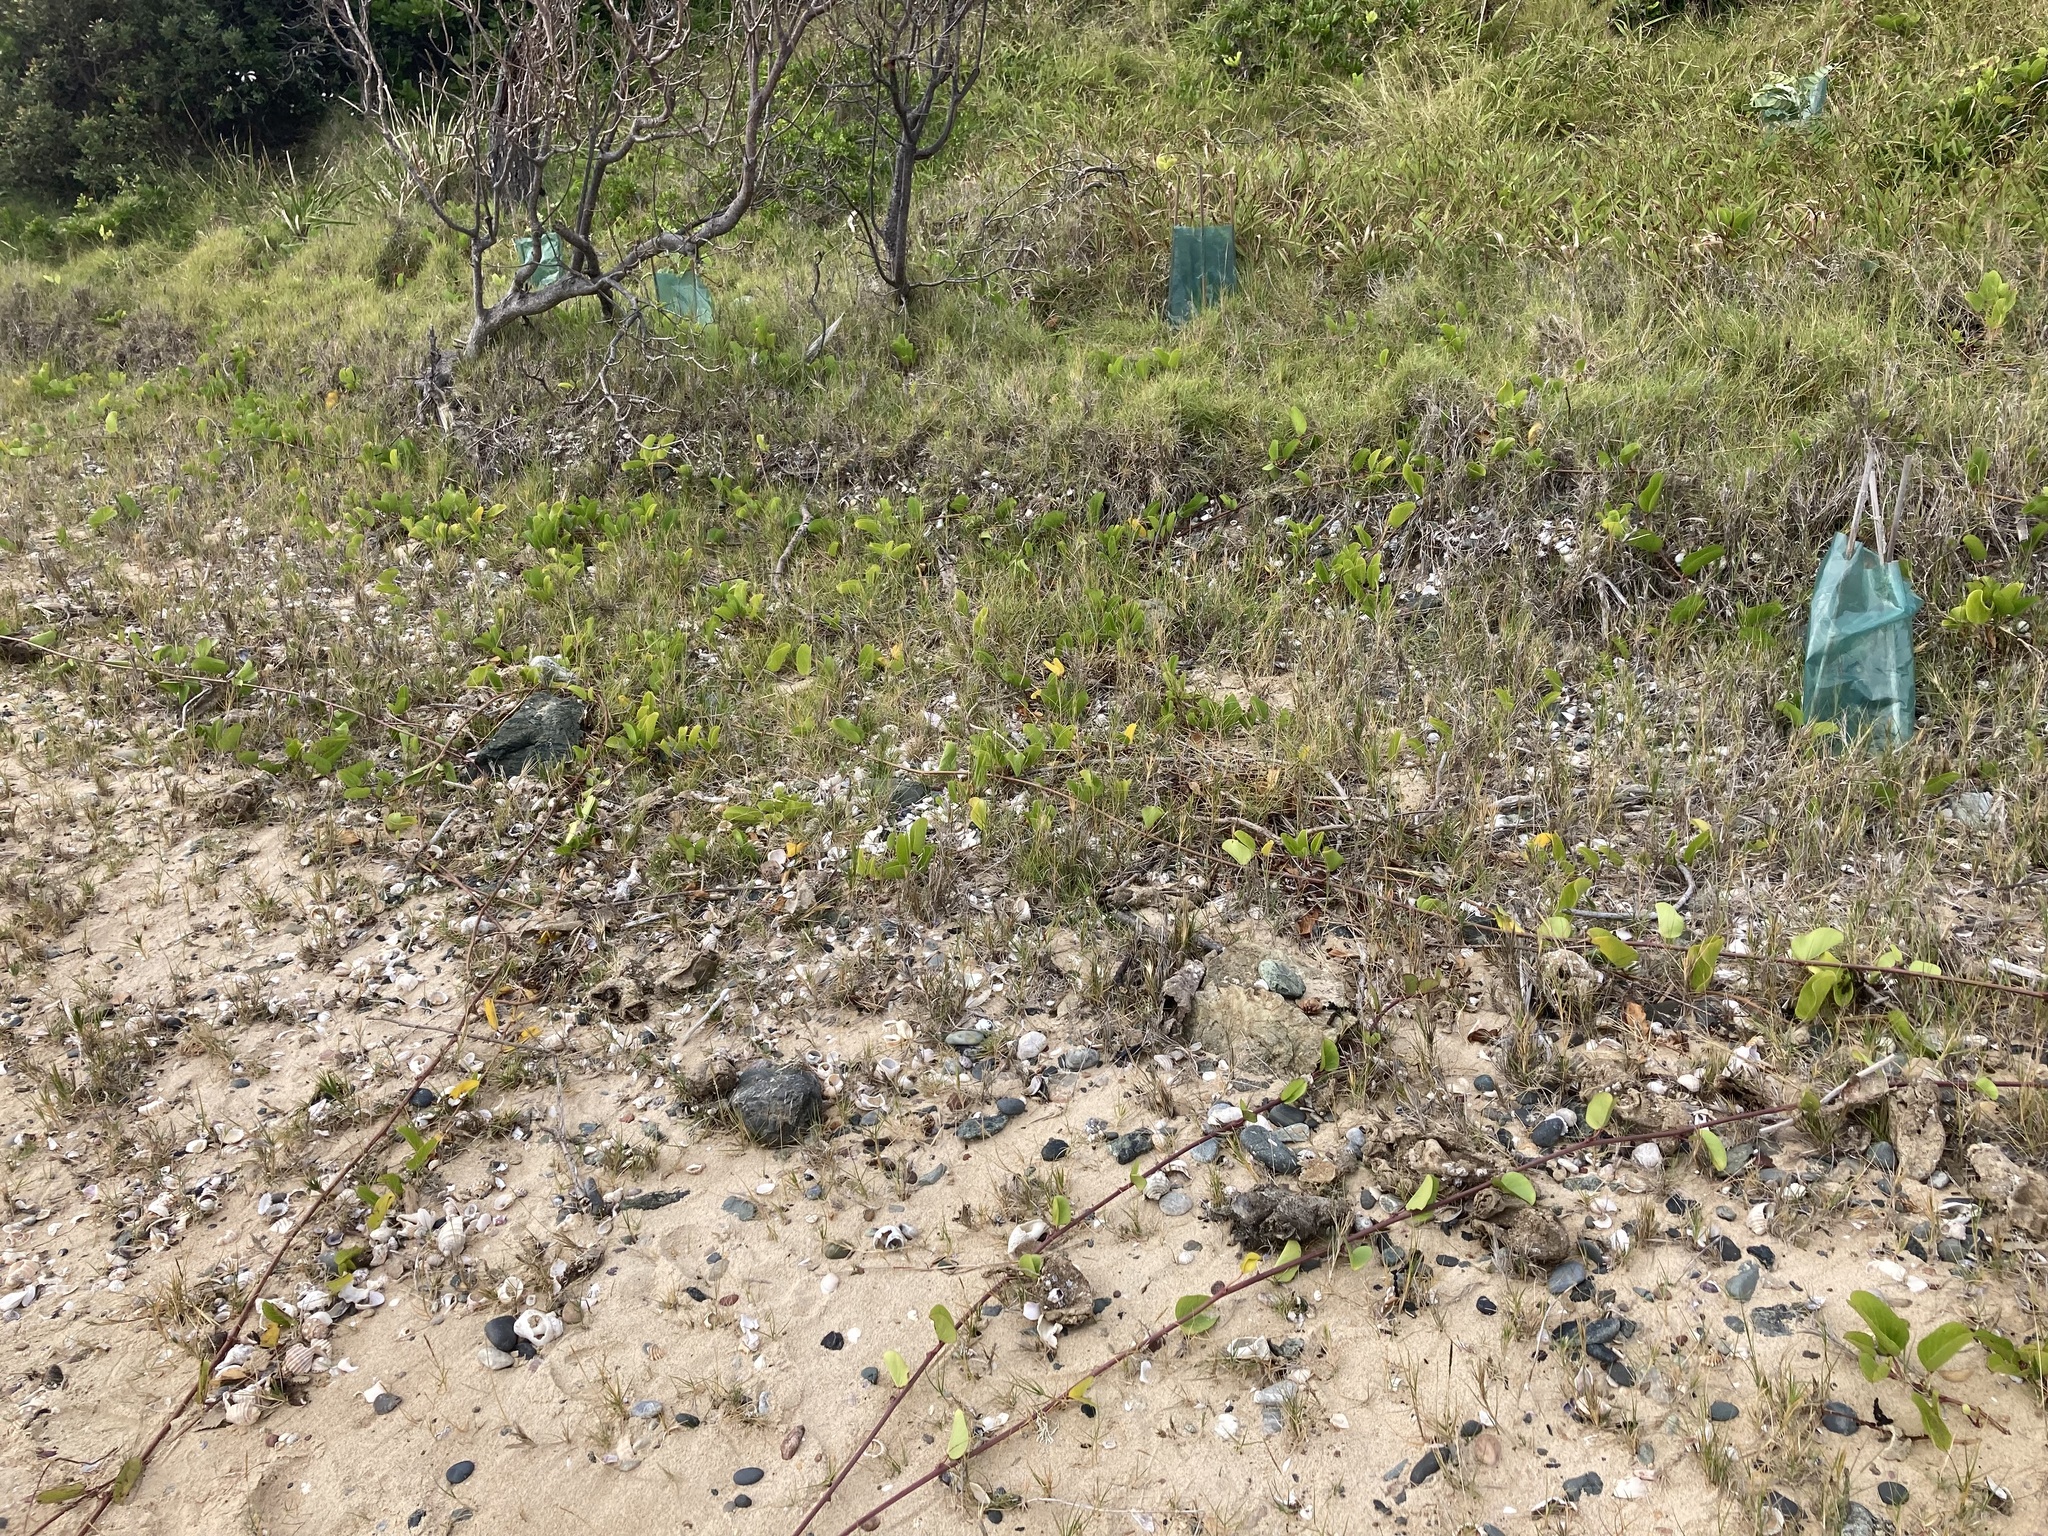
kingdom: Plantae
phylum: Tracheophyta
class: Magnoliopsida
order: Solanales
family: Convolvulaceae
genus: Ipomoea
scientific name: Ipomoea pes-caprae
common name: Beach morning glory
